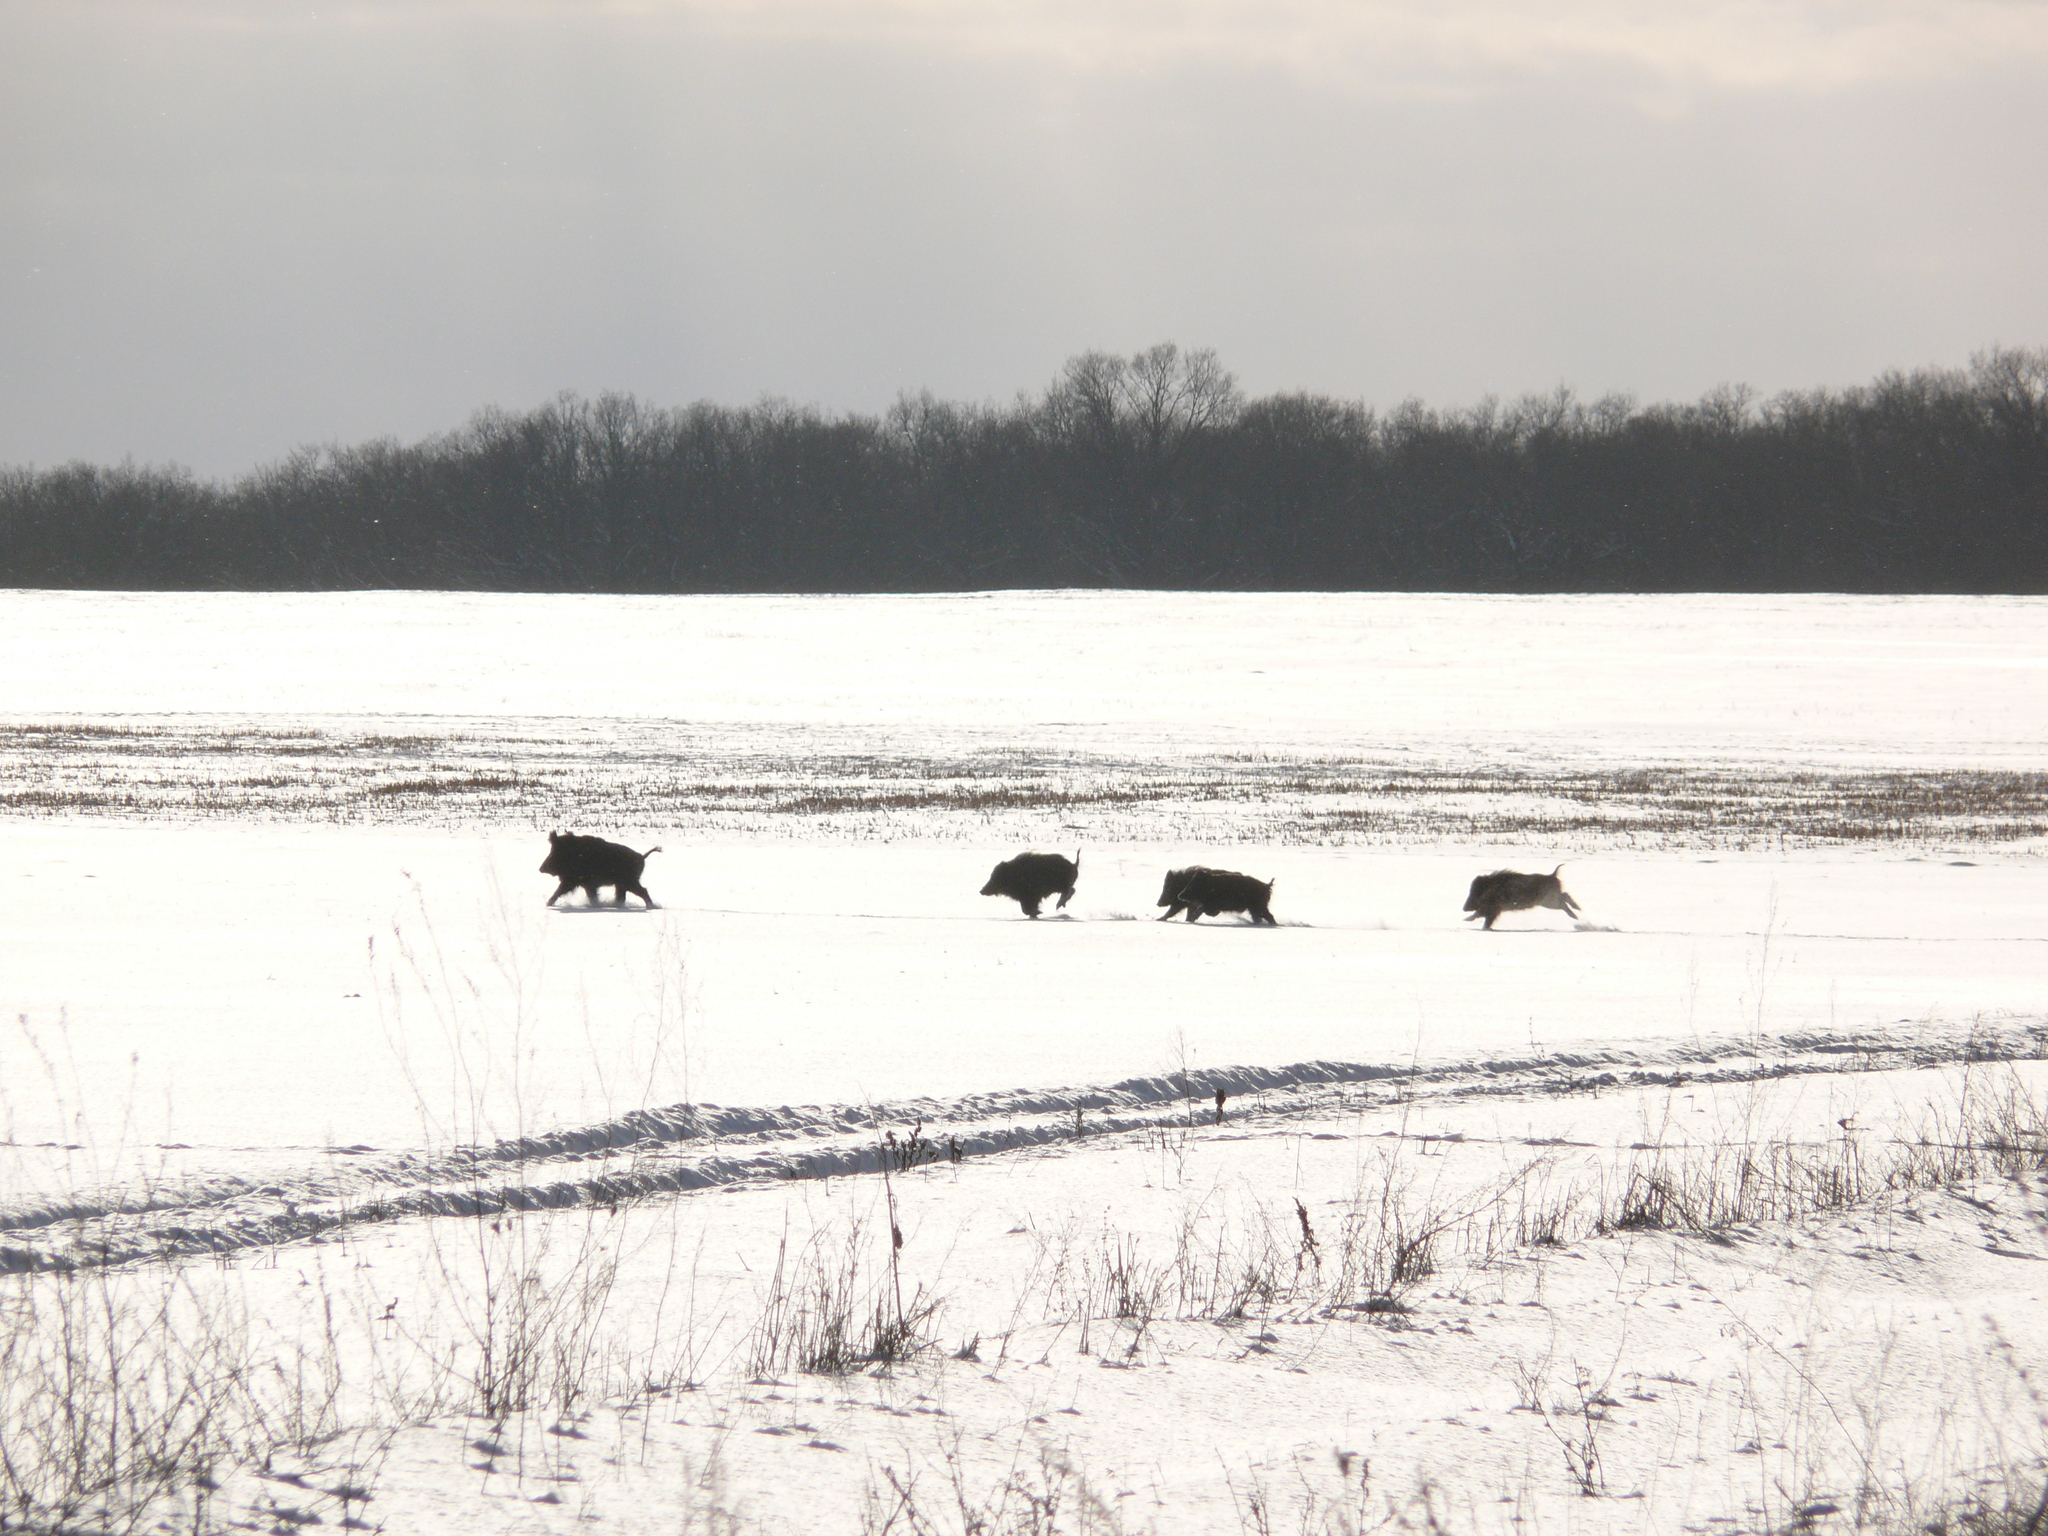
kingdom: Animalia
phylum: Chordata
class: Mammalia
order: Artiodactyla
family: Suidae
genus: Sus
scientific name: Sus scrofa
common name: Wild boar
